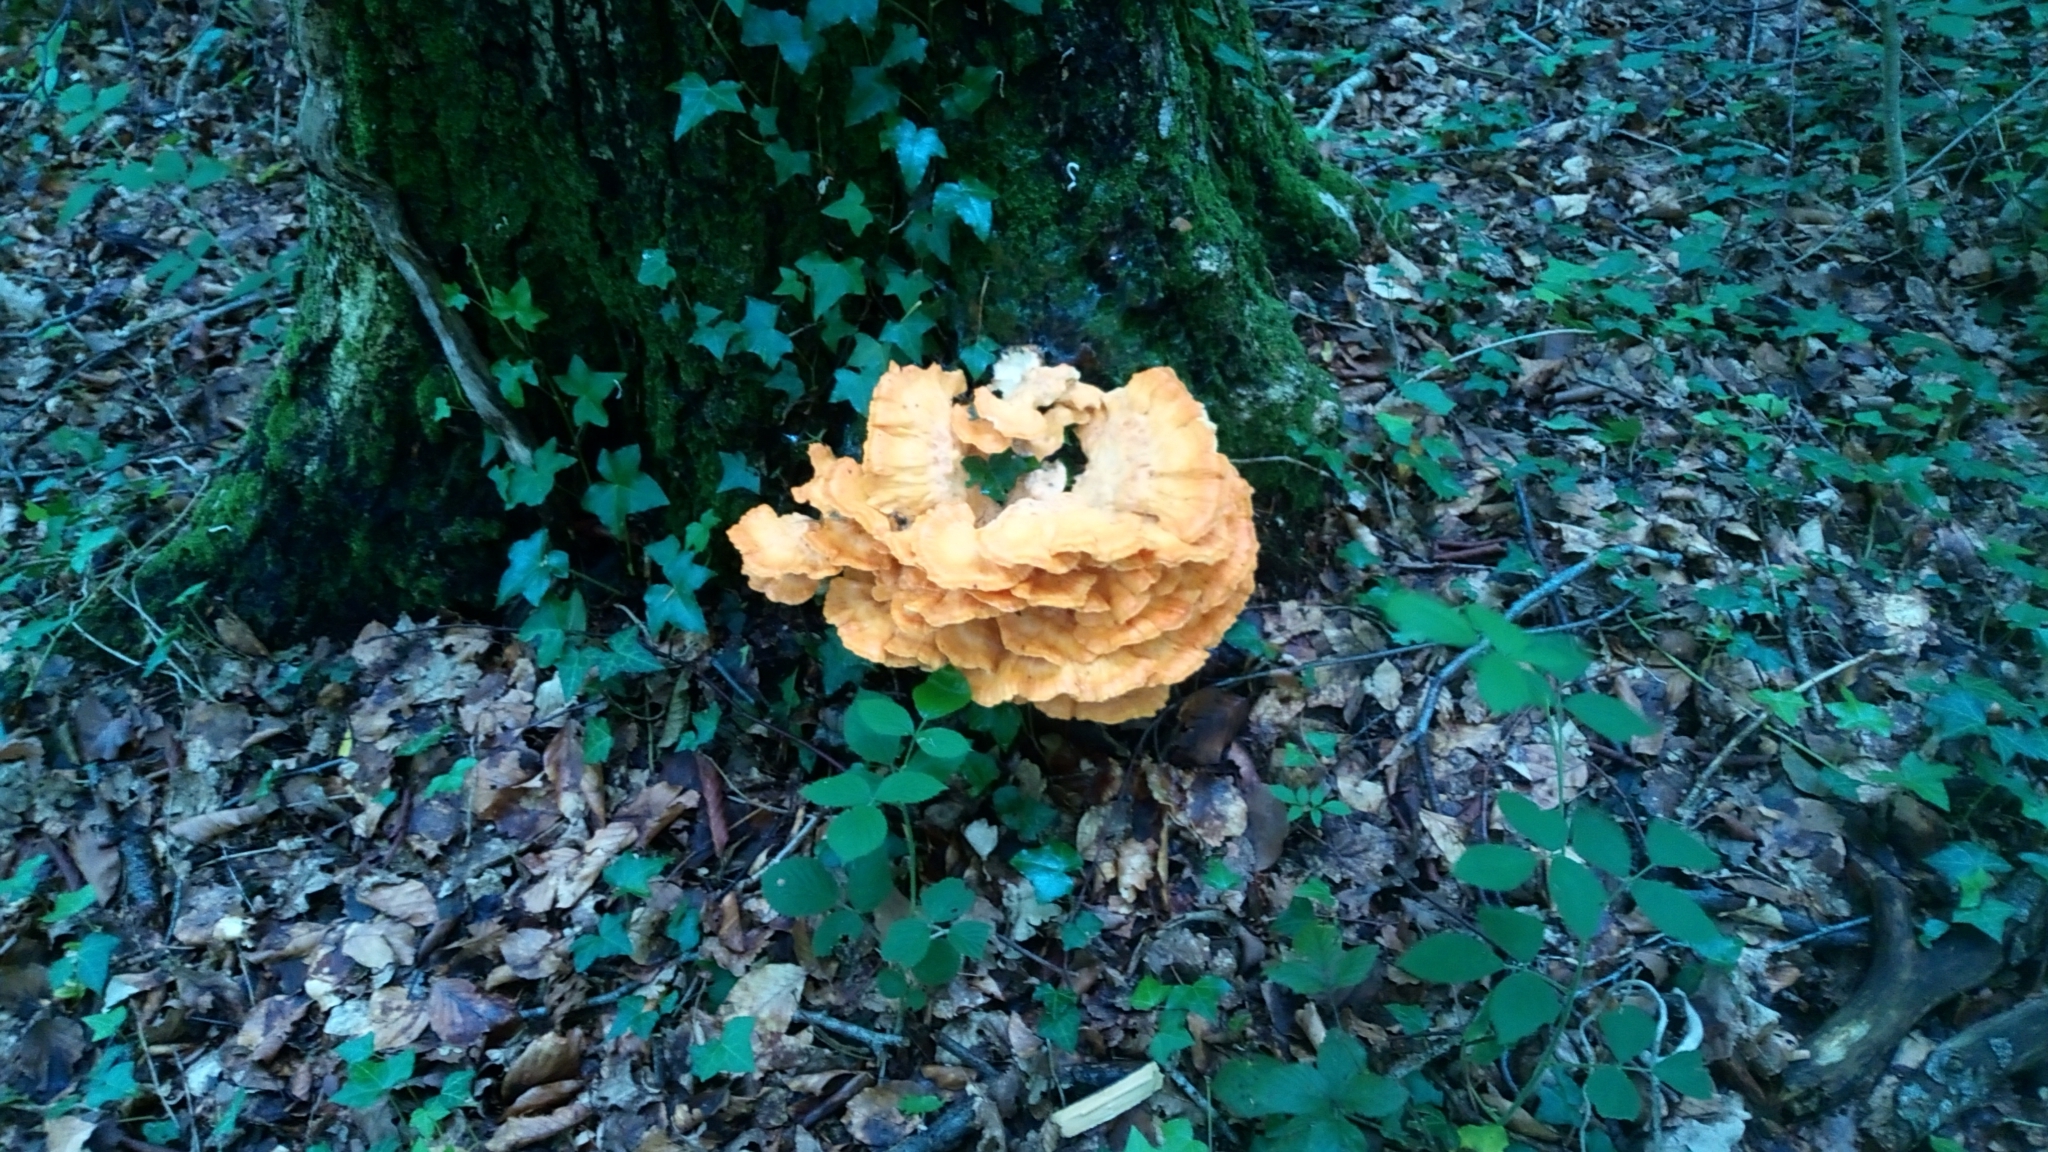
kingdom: Fungi
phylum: Basidiomycota
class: Agaricomycetes
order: Polyporales
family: Laetiporaceae
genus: Laetiporus
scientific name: Laetiporus sulphureus
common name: Chicken of the woods
